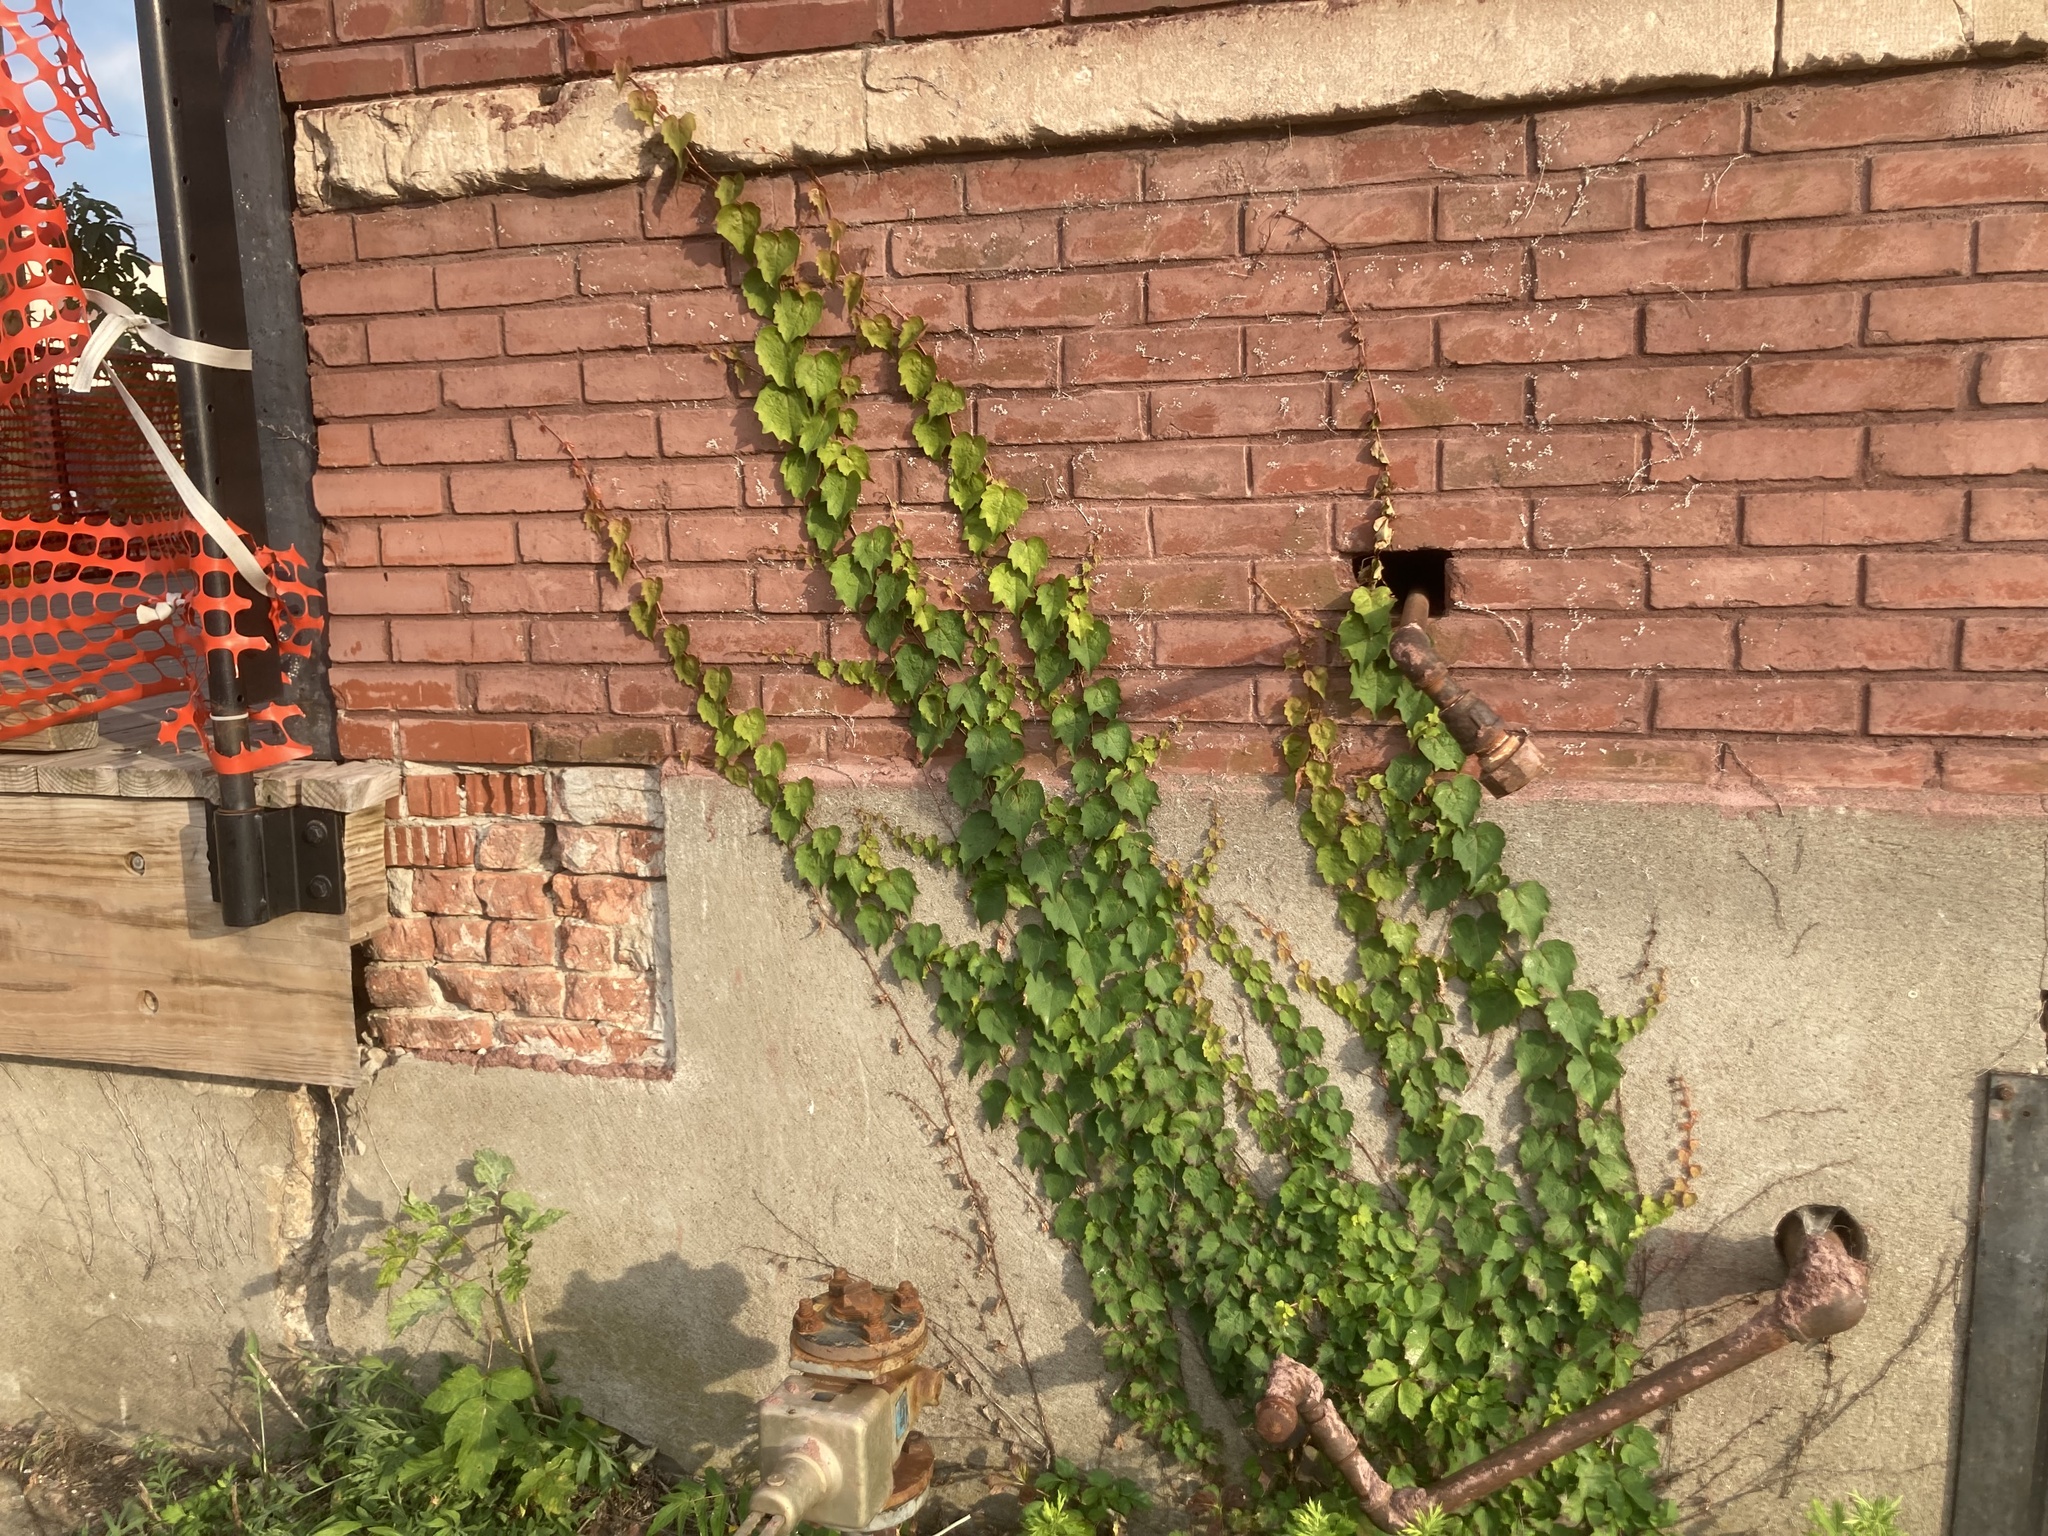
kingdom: Plantae
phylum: Tracheophyta
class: Magnoliopsida
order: Vitales
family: Vitaceae
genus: Parthenocissus
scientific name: Parthenocissus tricuspidata
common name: Boston ivy
